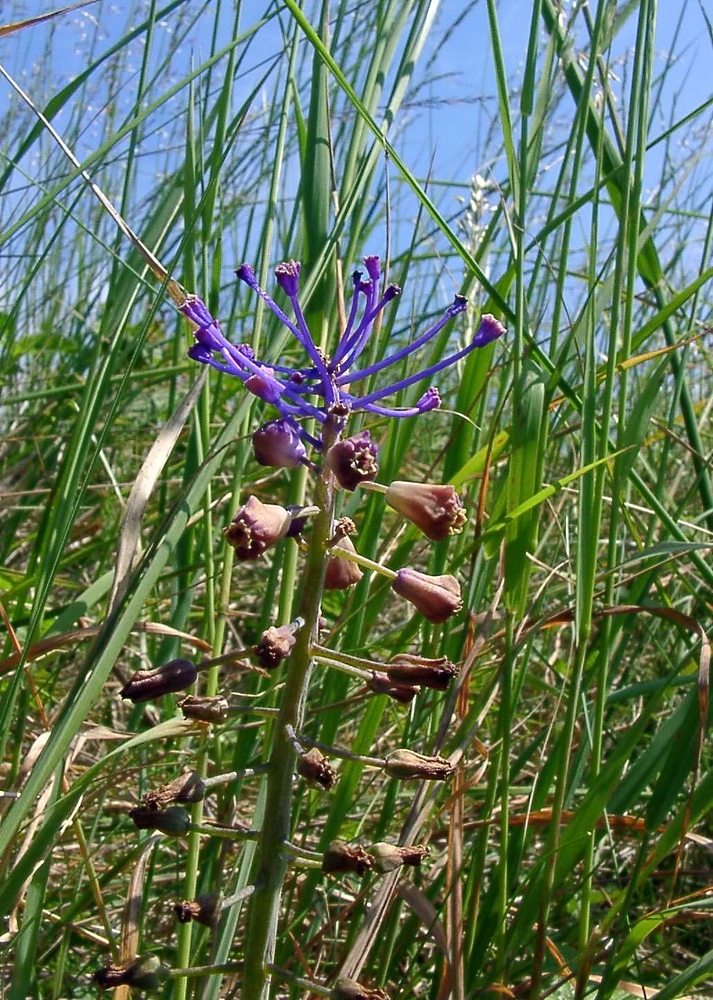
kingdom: Plantae
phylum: Tracheophyta
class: Liliopsida
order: Asparagales
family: Asparagaceae
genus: Muscari
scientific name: Muscari comosum
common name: Tassel hyacinth
